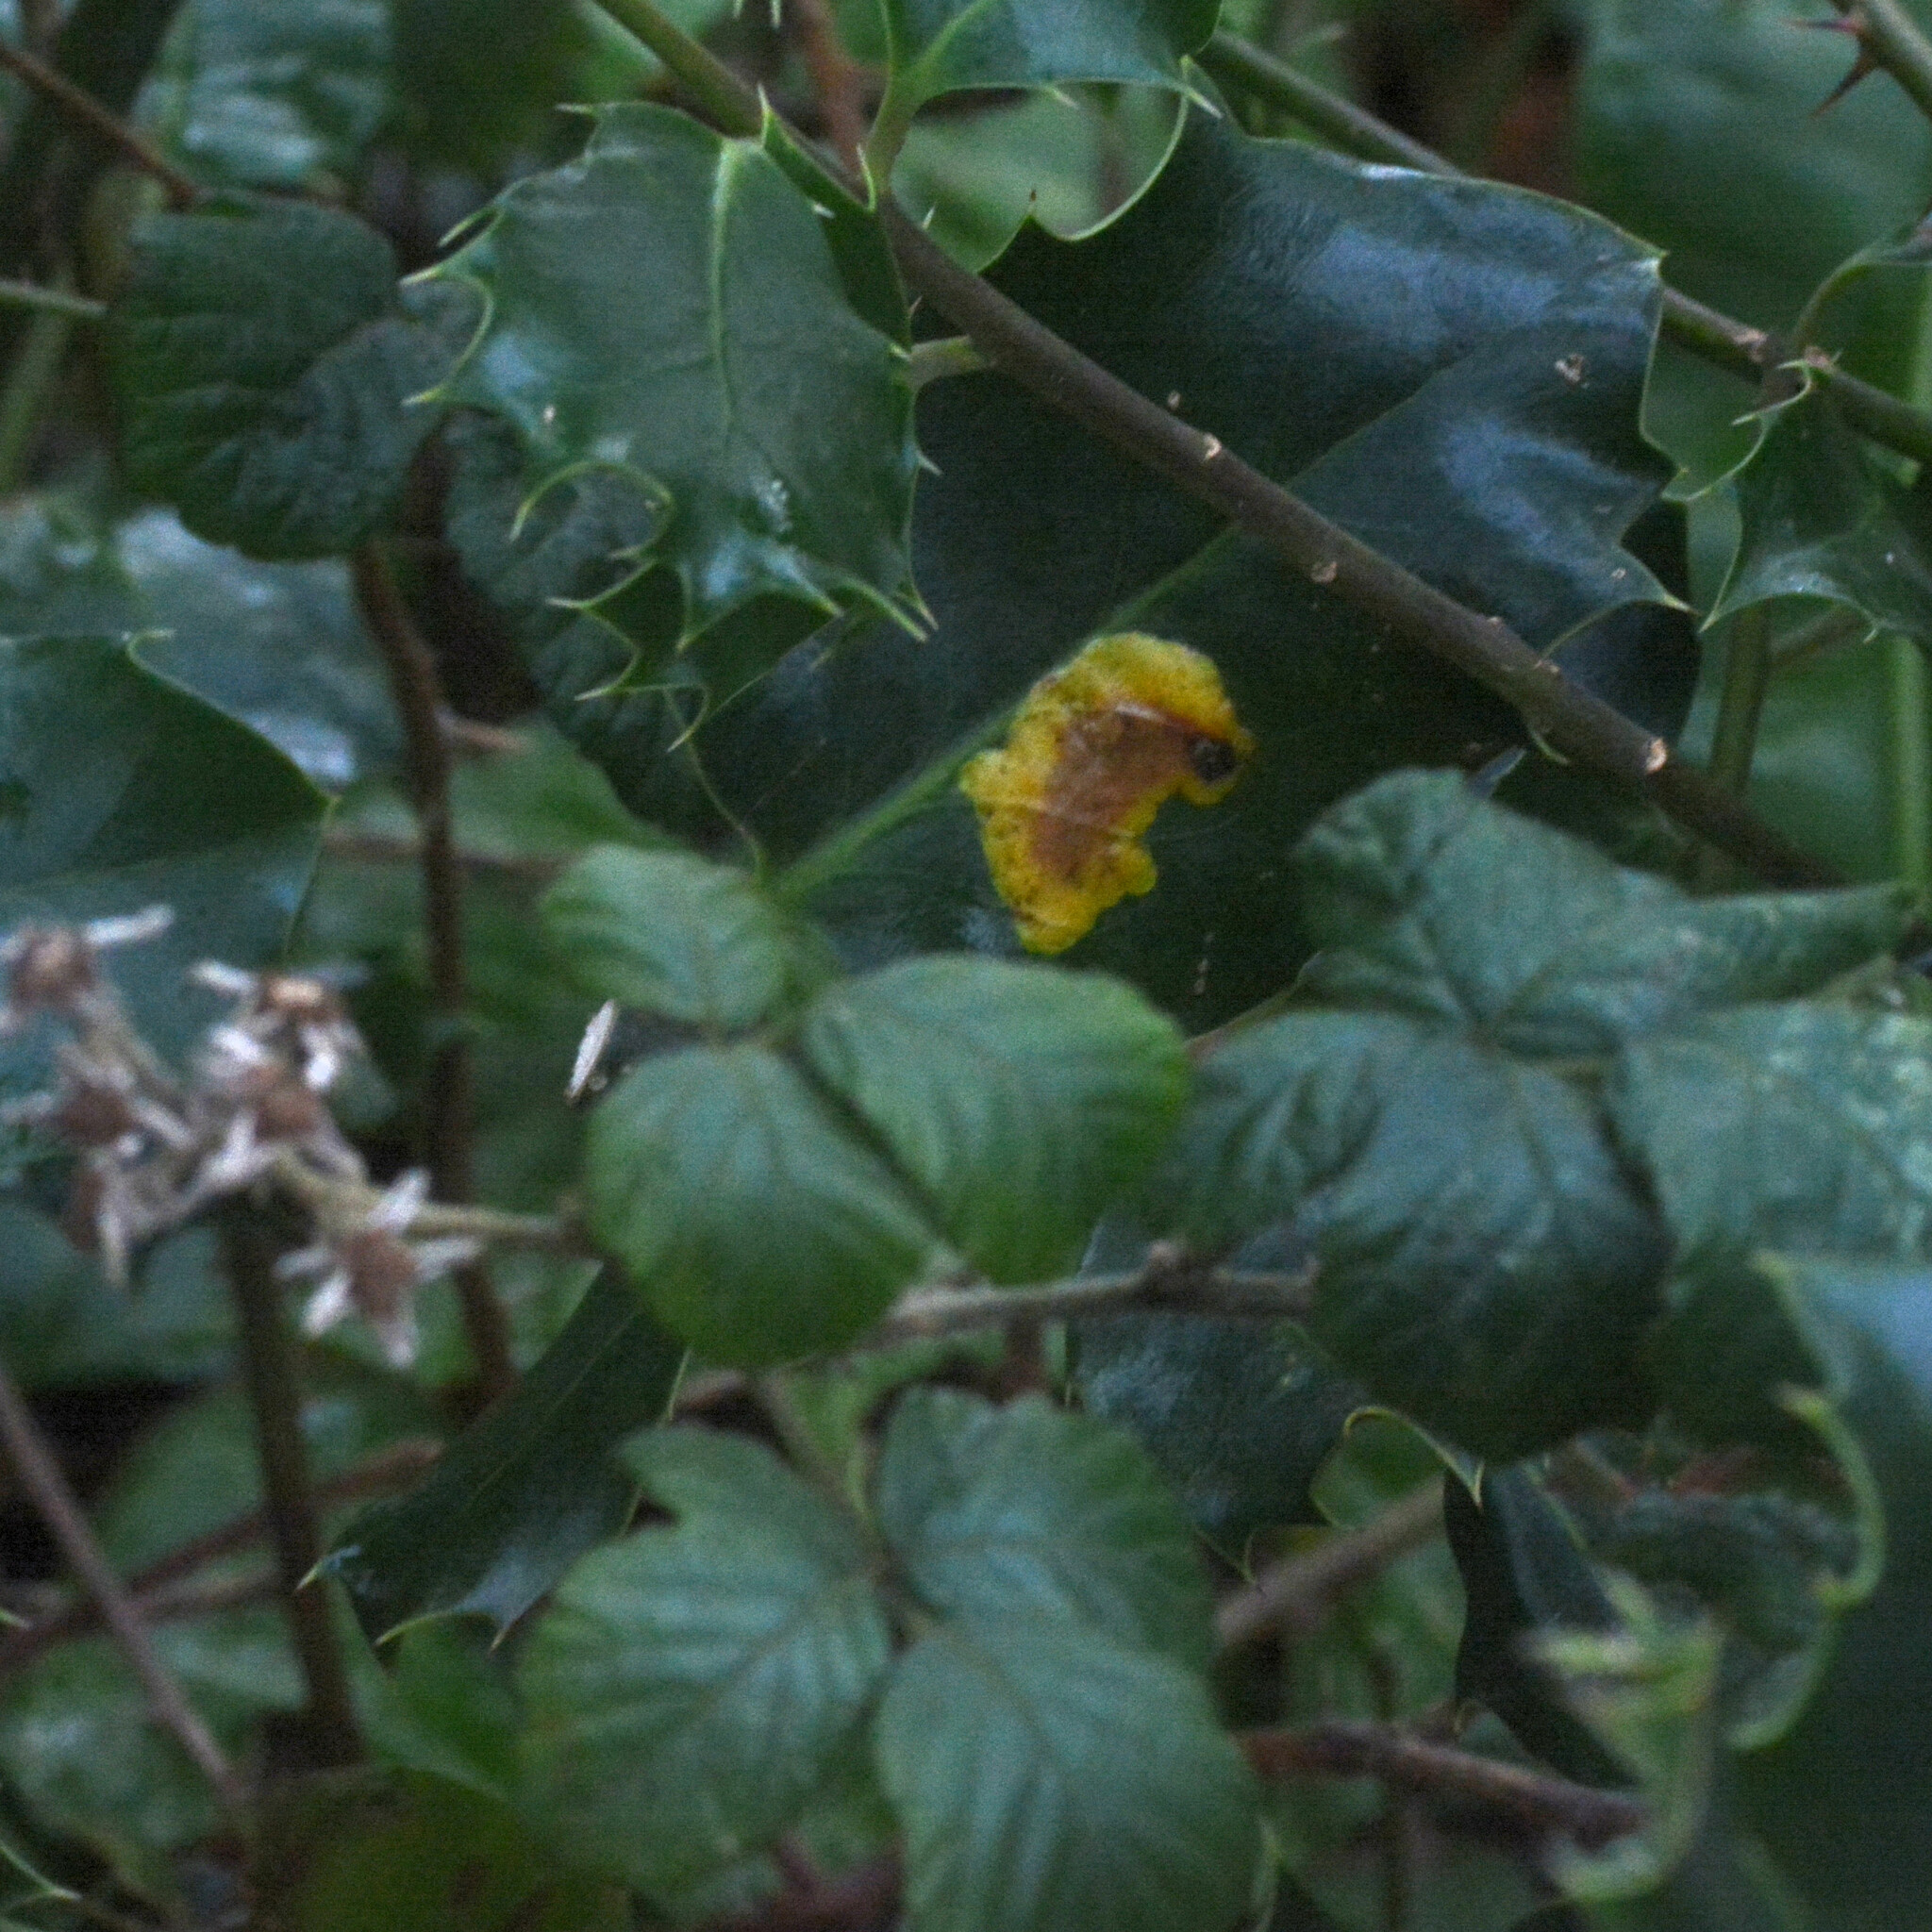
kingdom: Animalia
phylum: Arthropoda
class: Insecta
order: Diptera
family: Agromyzidae
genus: Phytomyza
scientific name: Phytomyza ilicis
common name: Holly leafminer
